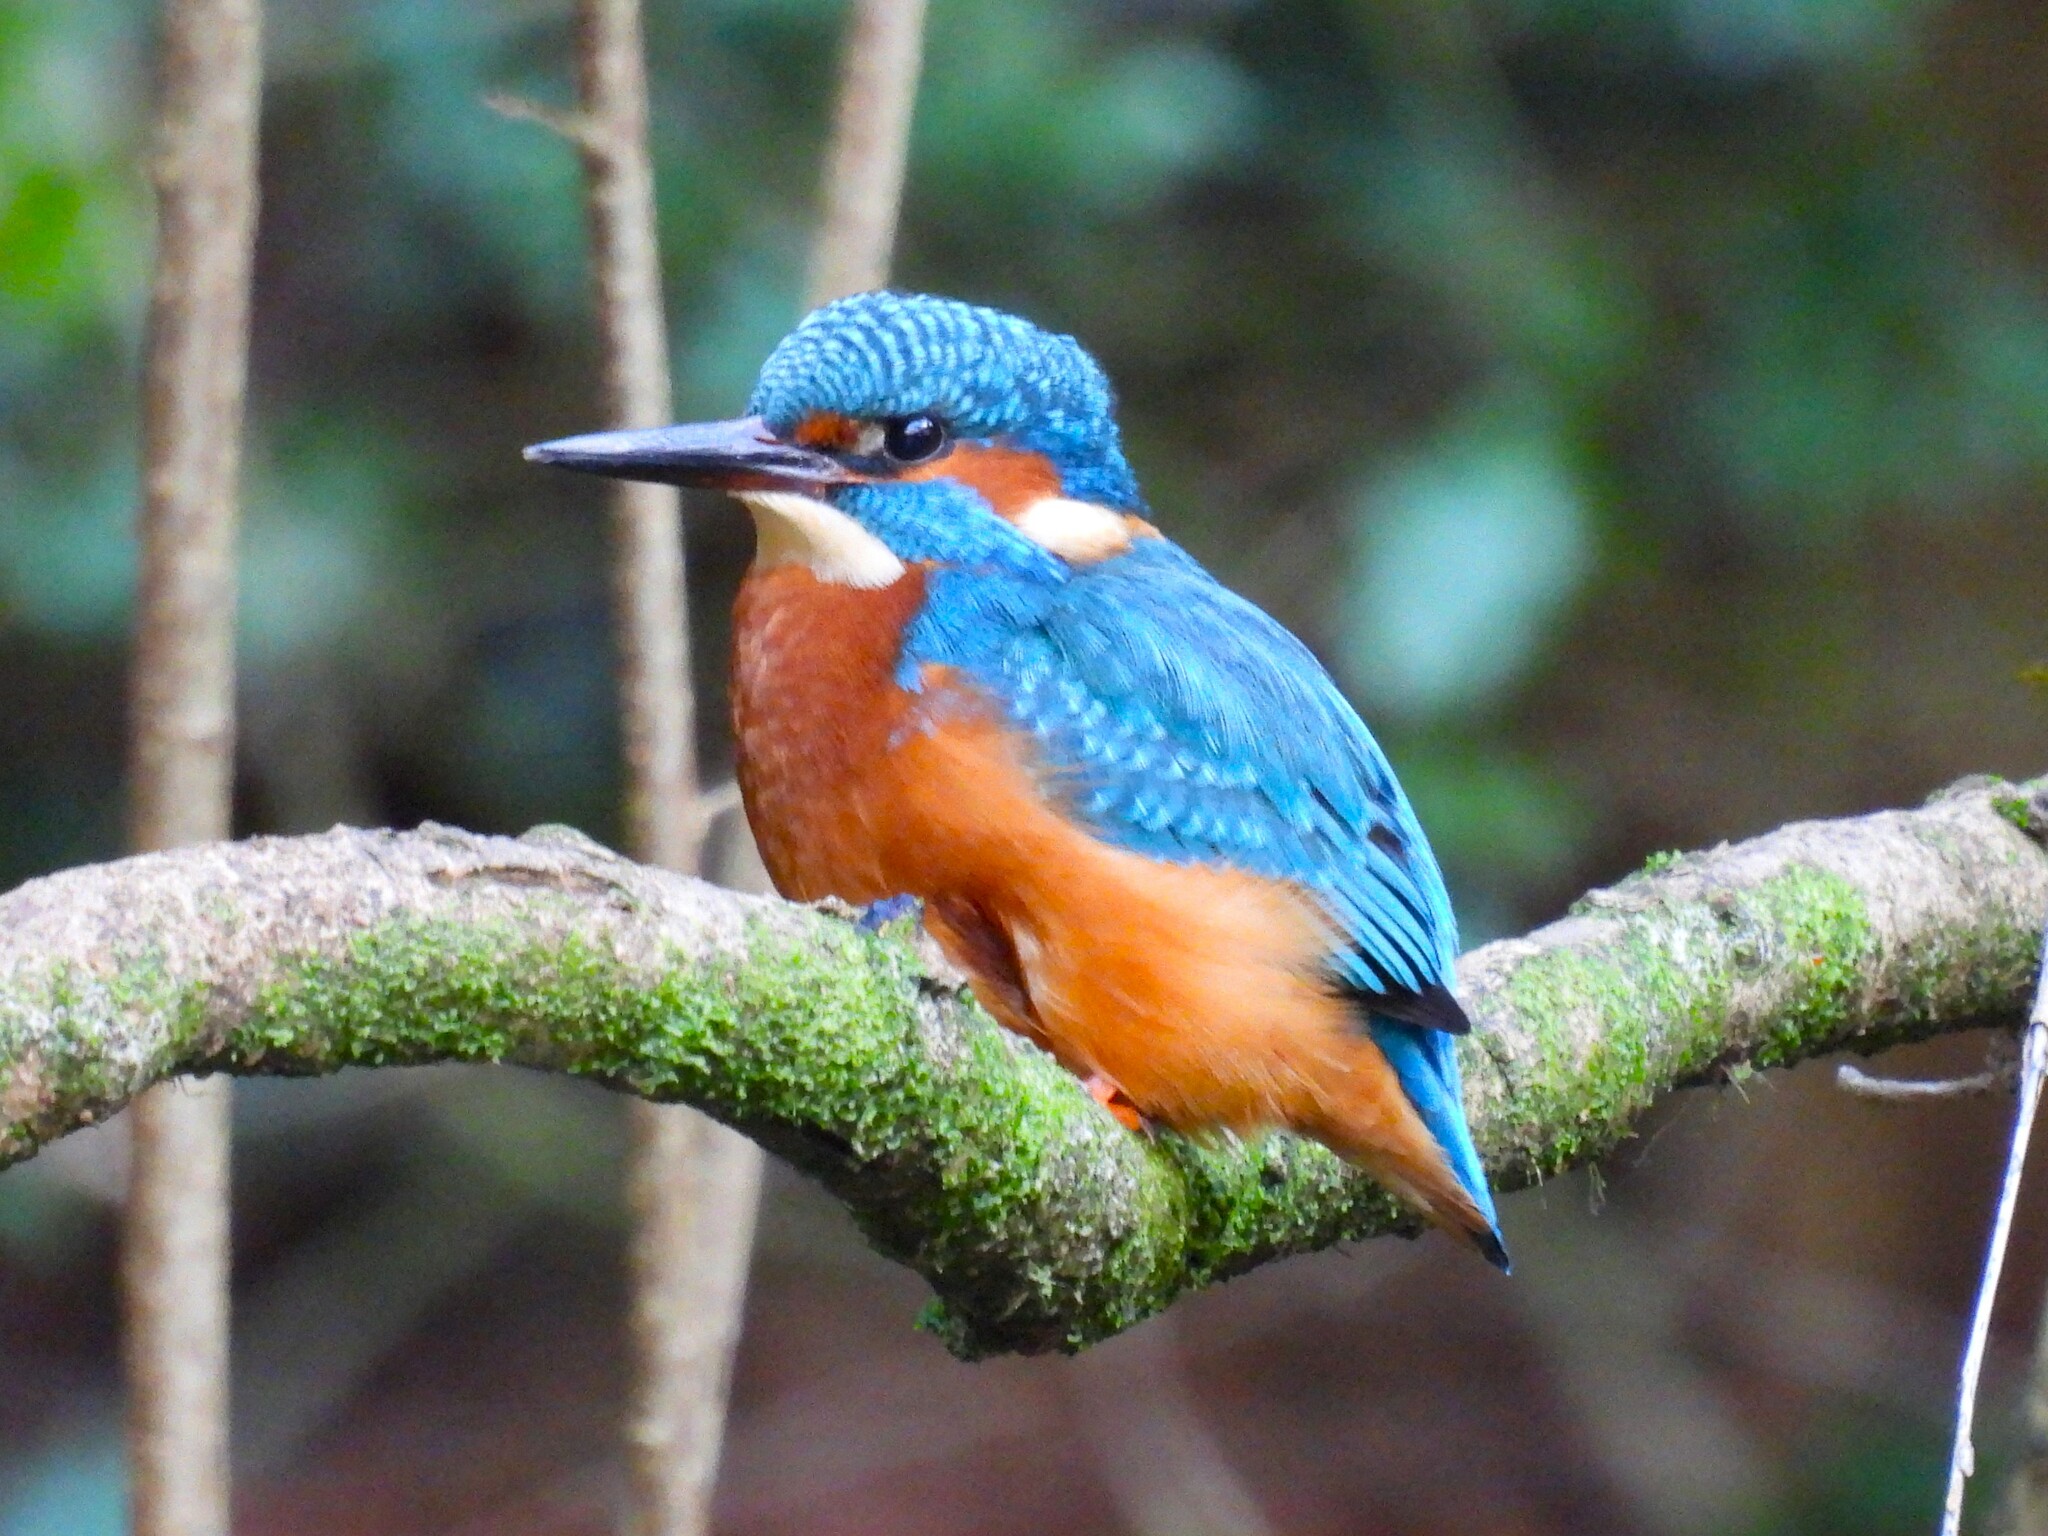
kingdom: Animalia
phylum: Chordata
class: Aves
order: Coraciiformes
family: Alcedinidae
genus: Alcedo
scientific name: Alcedo atthis
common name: Common kingfisher
